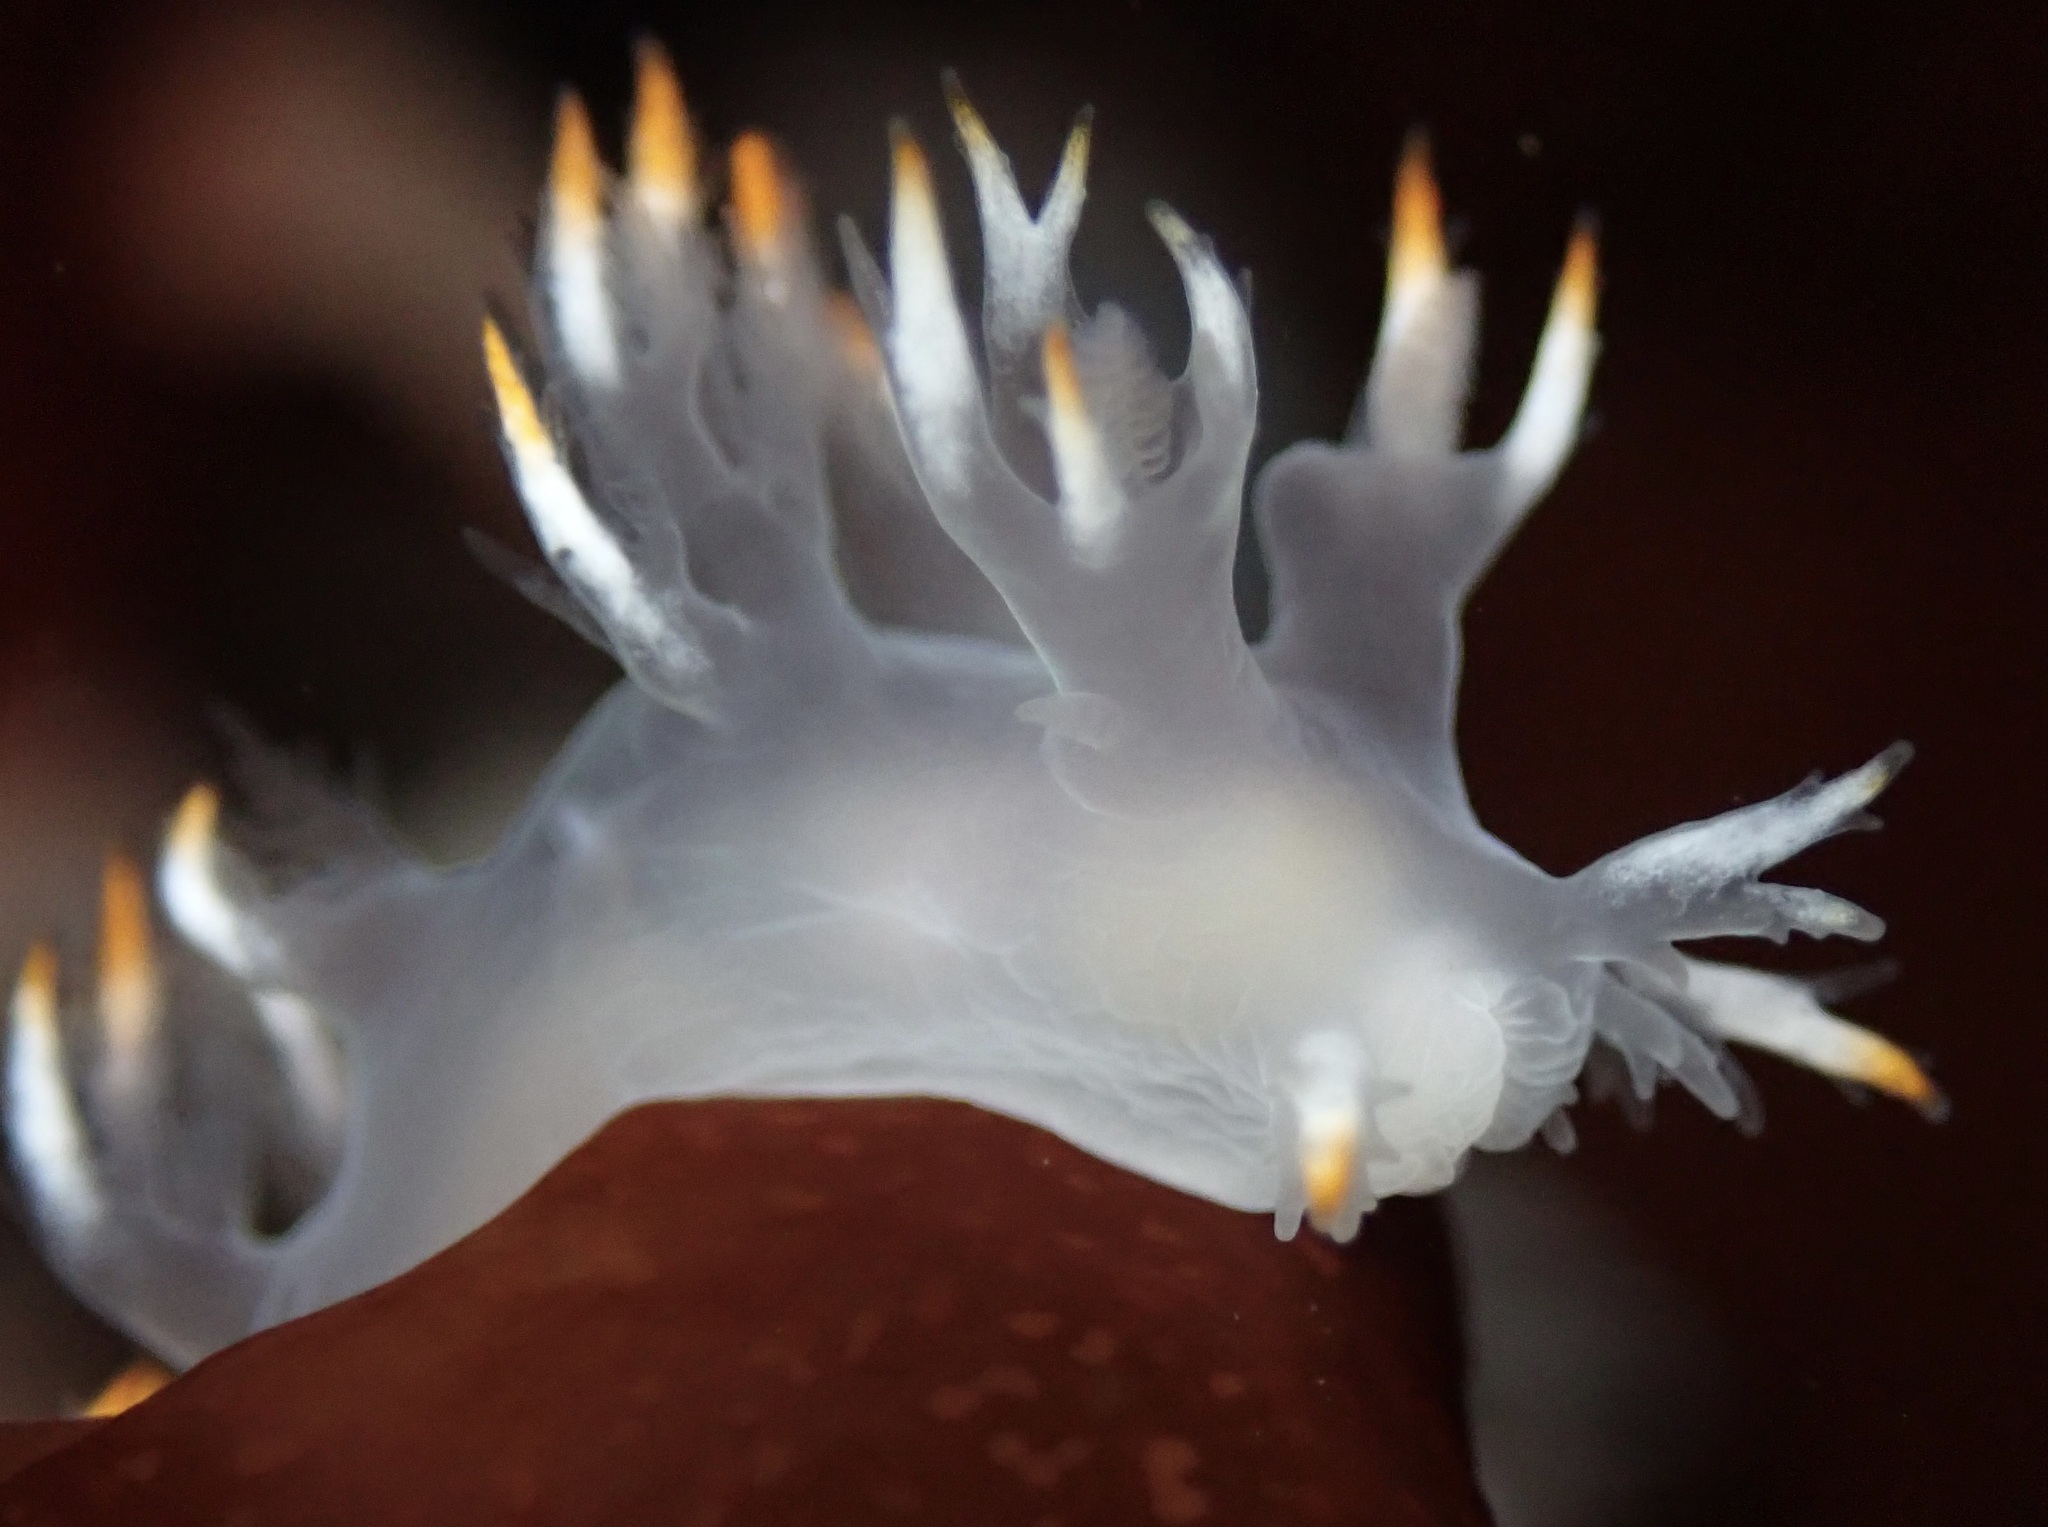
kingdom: Animalia
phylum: Mollusca
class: Gastropoda
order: Nudibranchia
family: Dendronotidae
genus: Dendronotus
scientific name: Dendronotus albus
